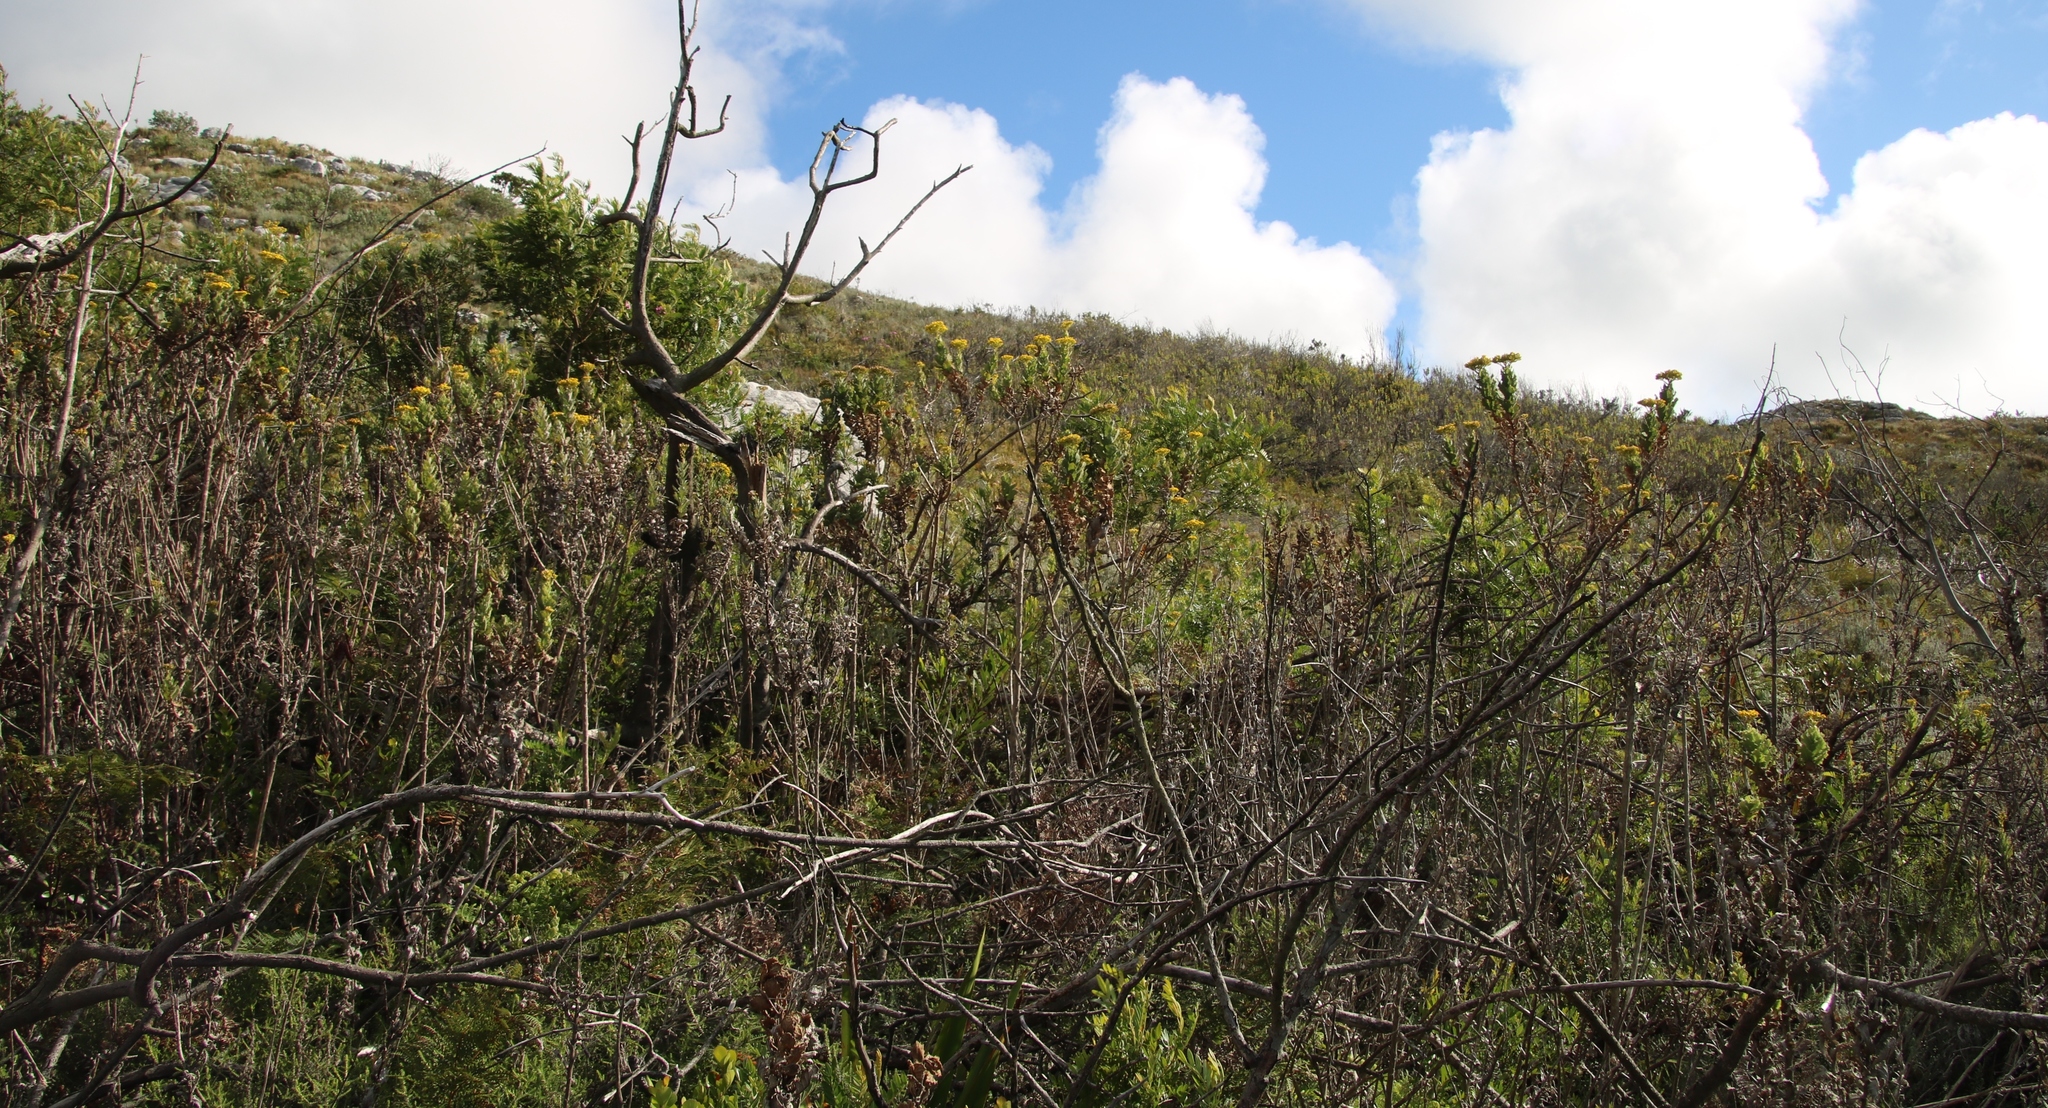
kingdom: Plantae
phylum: Tracheophyta
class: Magnoliopsida
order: Asterales
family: Asteraceae
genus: Senecio
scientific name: Senecio rigidus
